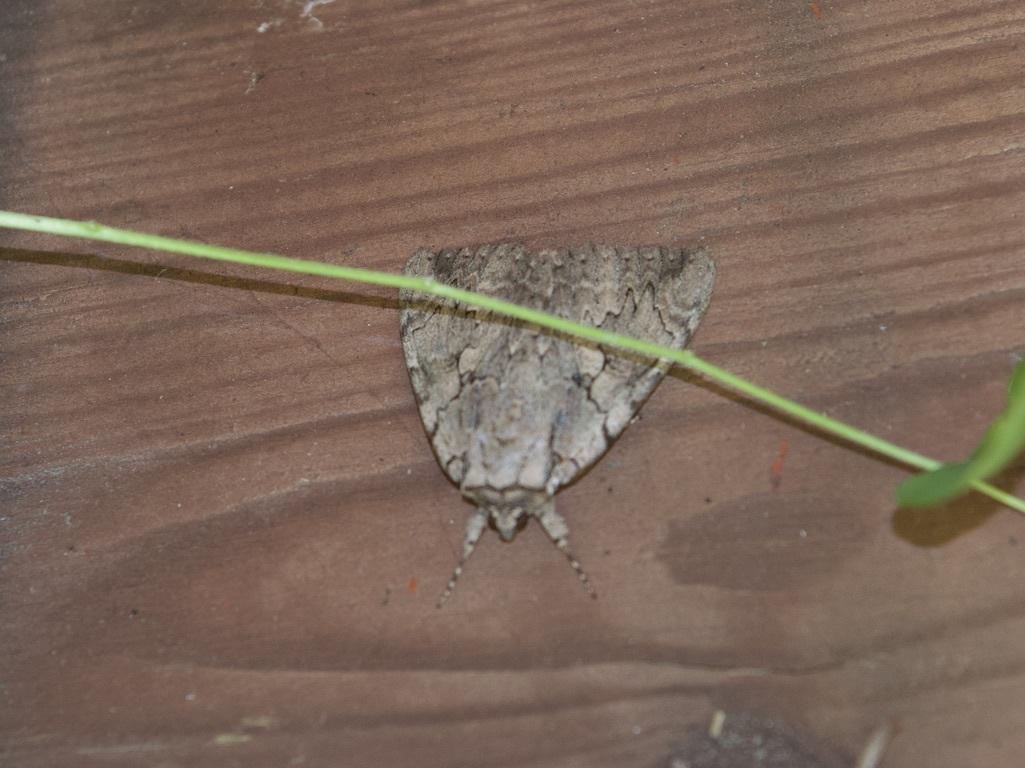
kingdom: Animalia
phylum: Arthropoda
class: Insecta
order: Lepidoptera
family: Erebidae
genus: Catocala
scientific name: Catocala amatrix
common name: Sweetheart underwing
